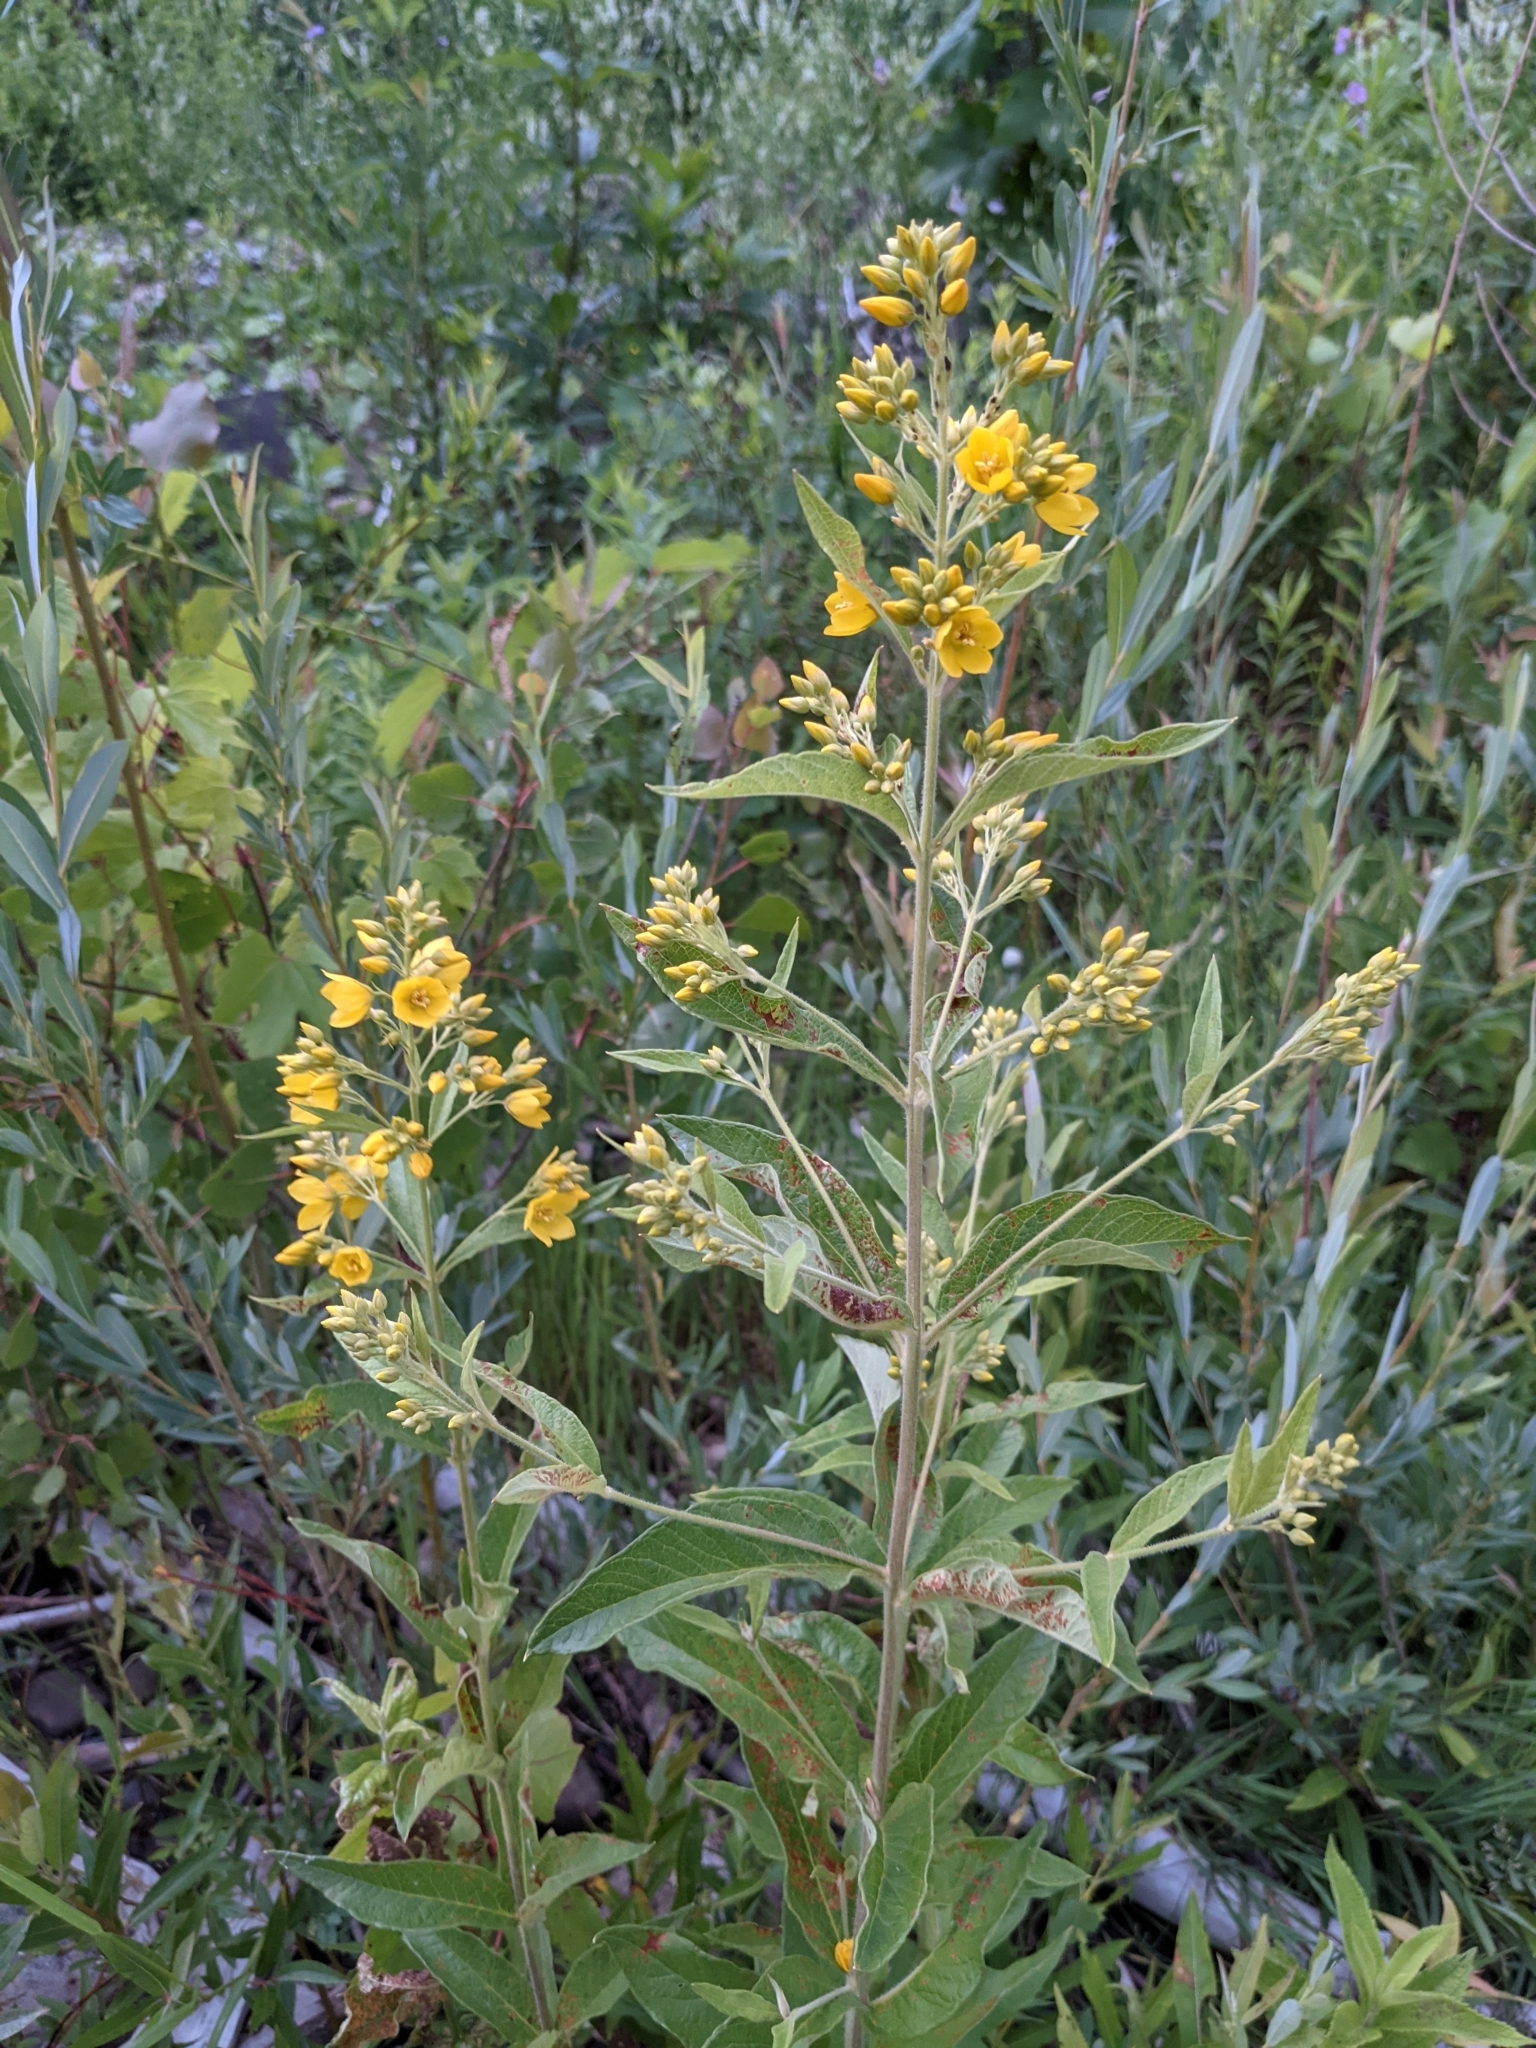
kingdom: Plantae
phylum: Tracheophyta
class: Magnoliopsida
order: Ericales
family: Primulaceae
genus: Lysimachia
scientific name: Lysimachia vulgaris
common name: Yellow loosestrife
